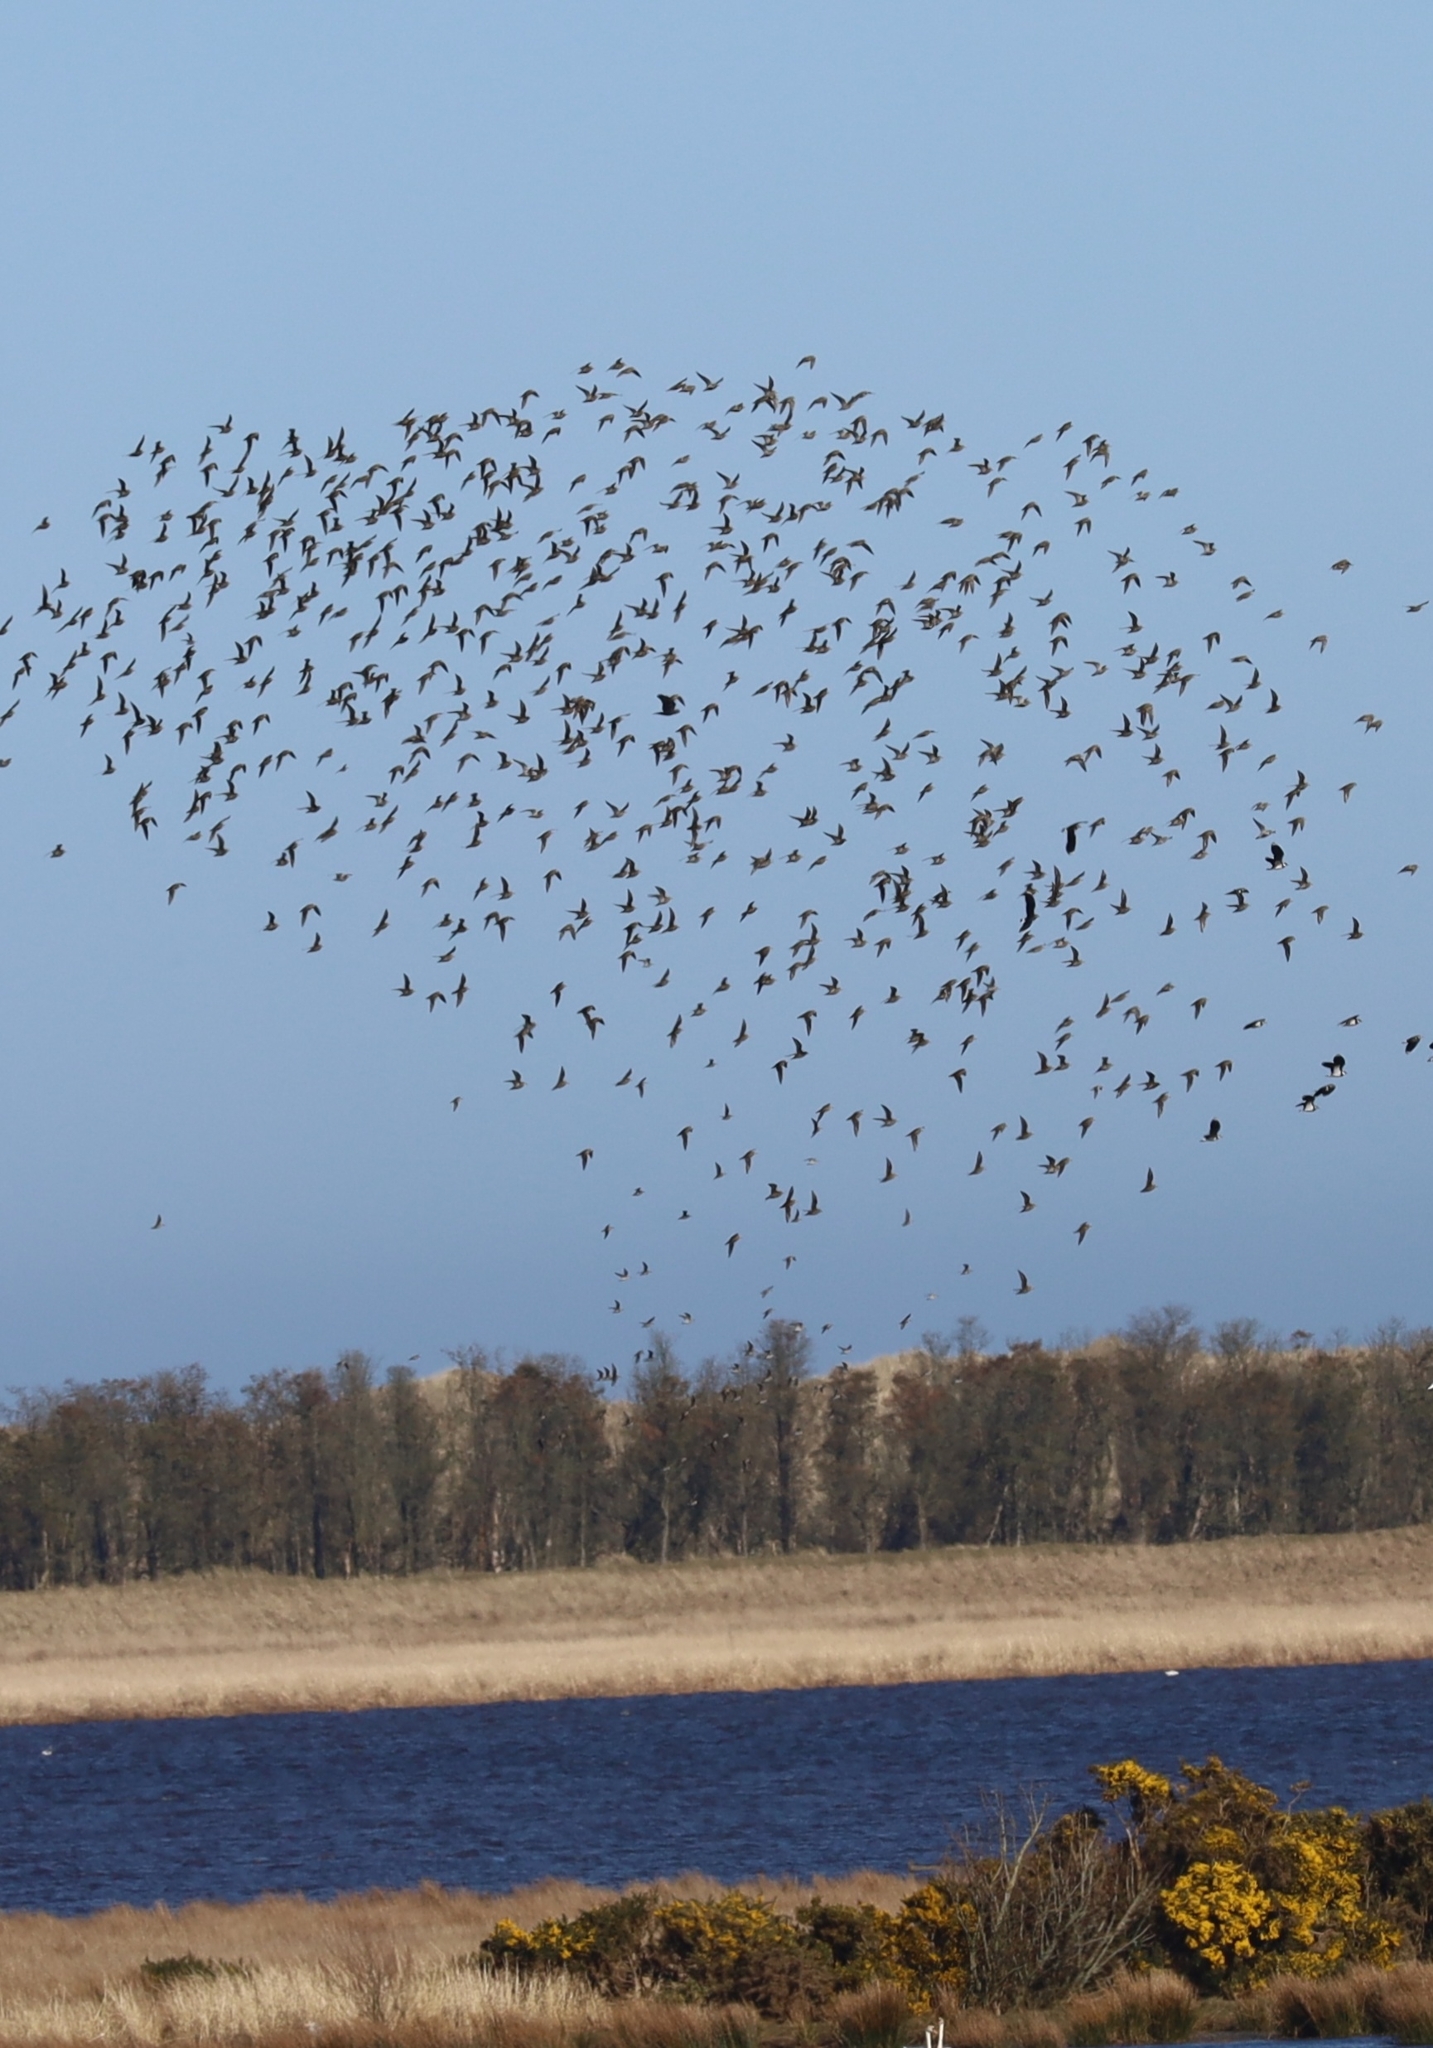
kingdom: Animalia
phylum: Chordata
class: Aves
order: Charadriiformes
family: Charadriidae
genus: Pluvialis
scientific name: Pluvialis apricaria
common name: European golden plover
